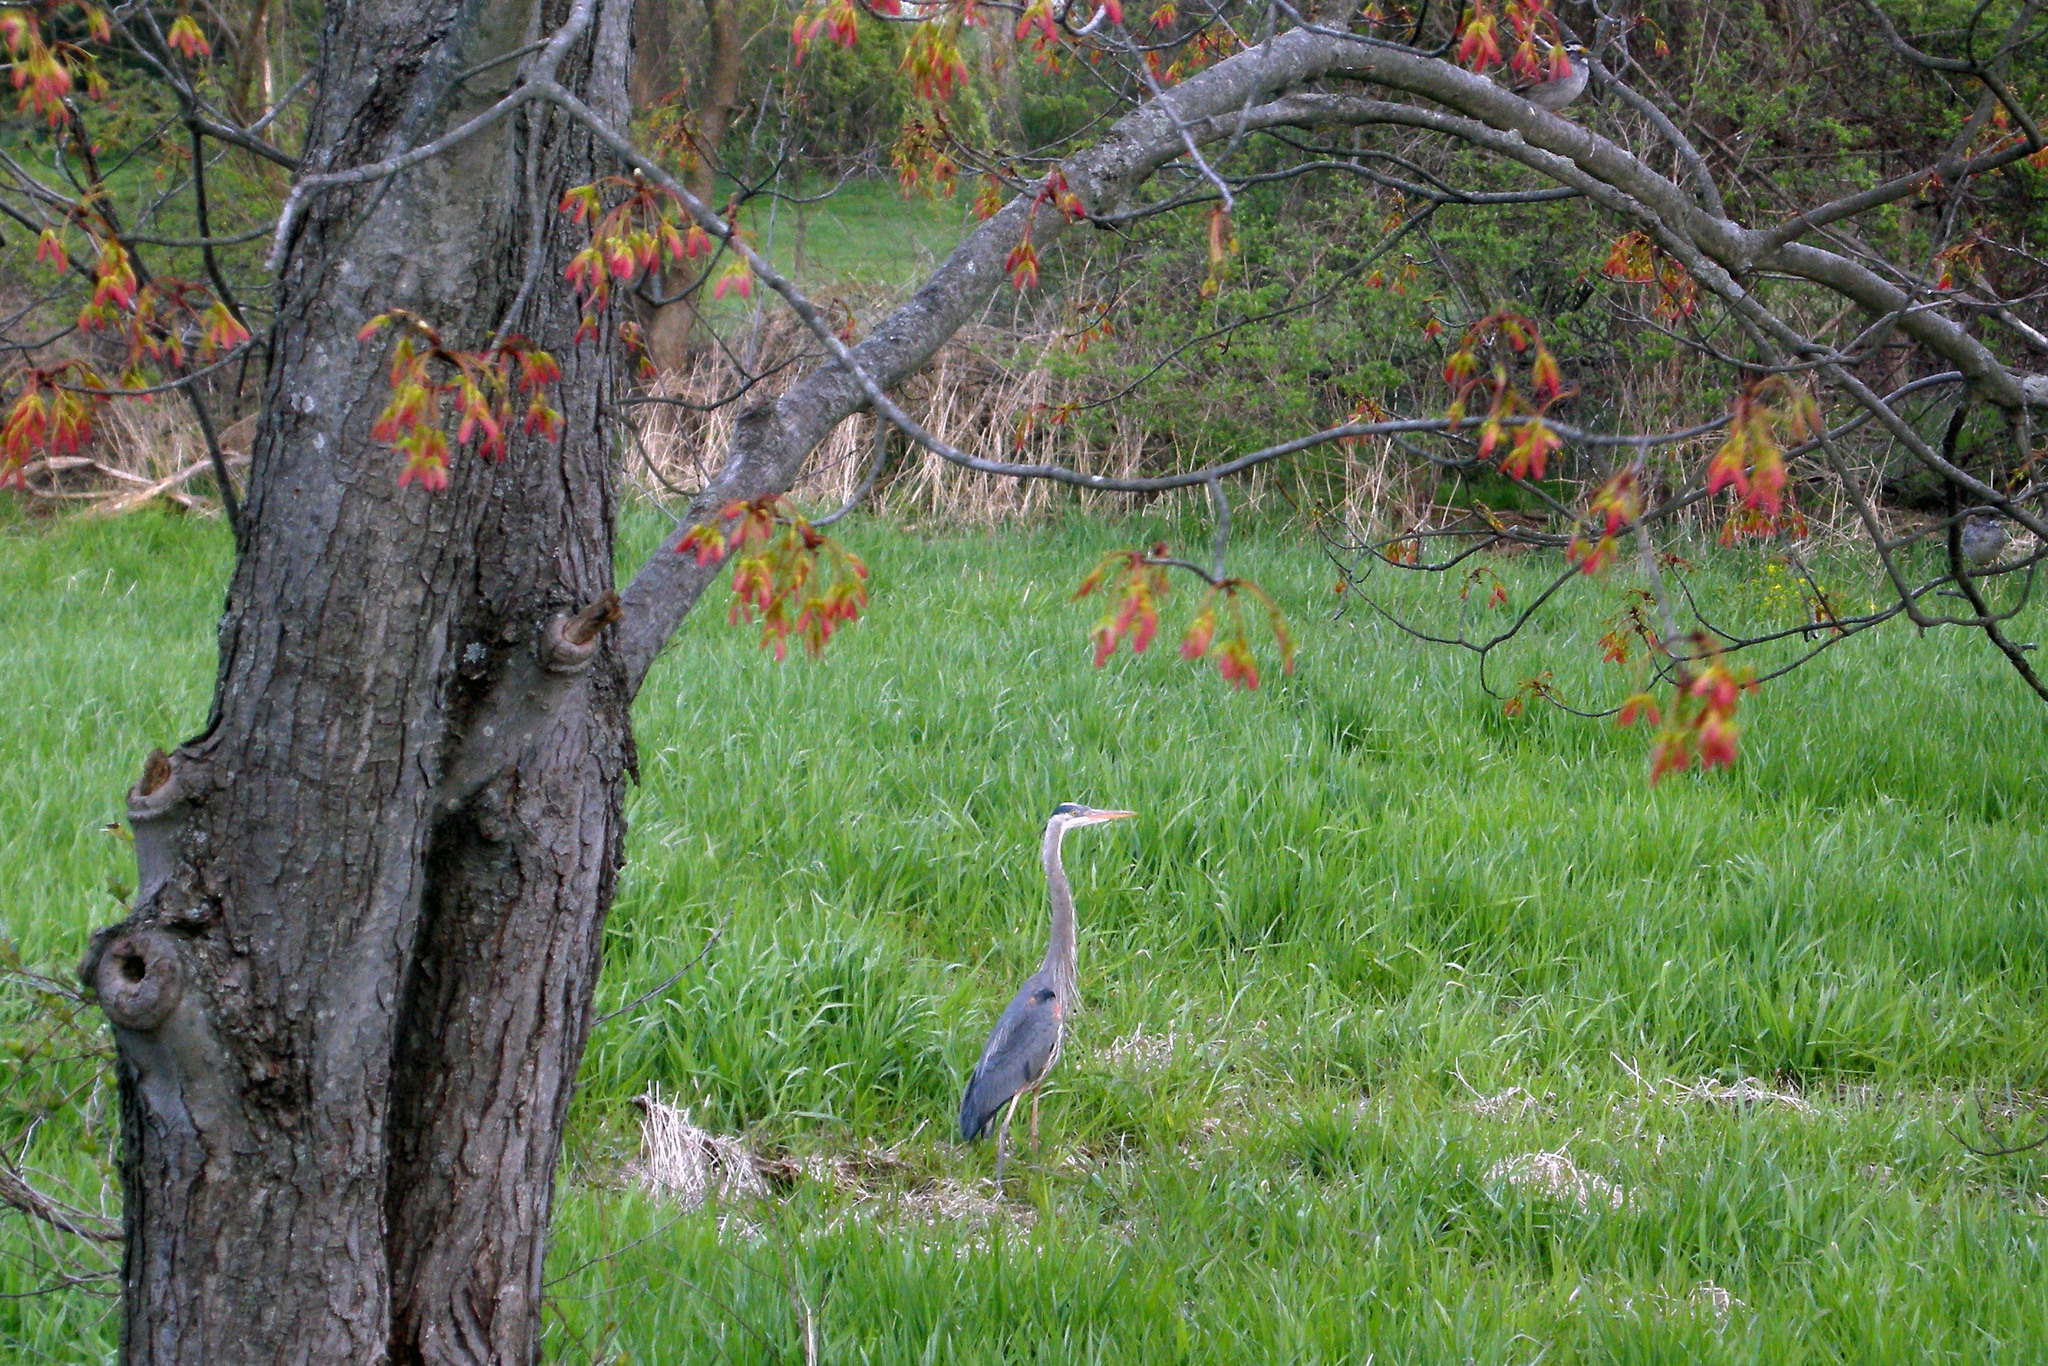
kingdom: Animalia
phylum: Chordata
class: Aves
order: Pelecaniformes
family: Ardeidae
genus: Ardea
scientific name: Ardea herodias
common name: Great blue heron
